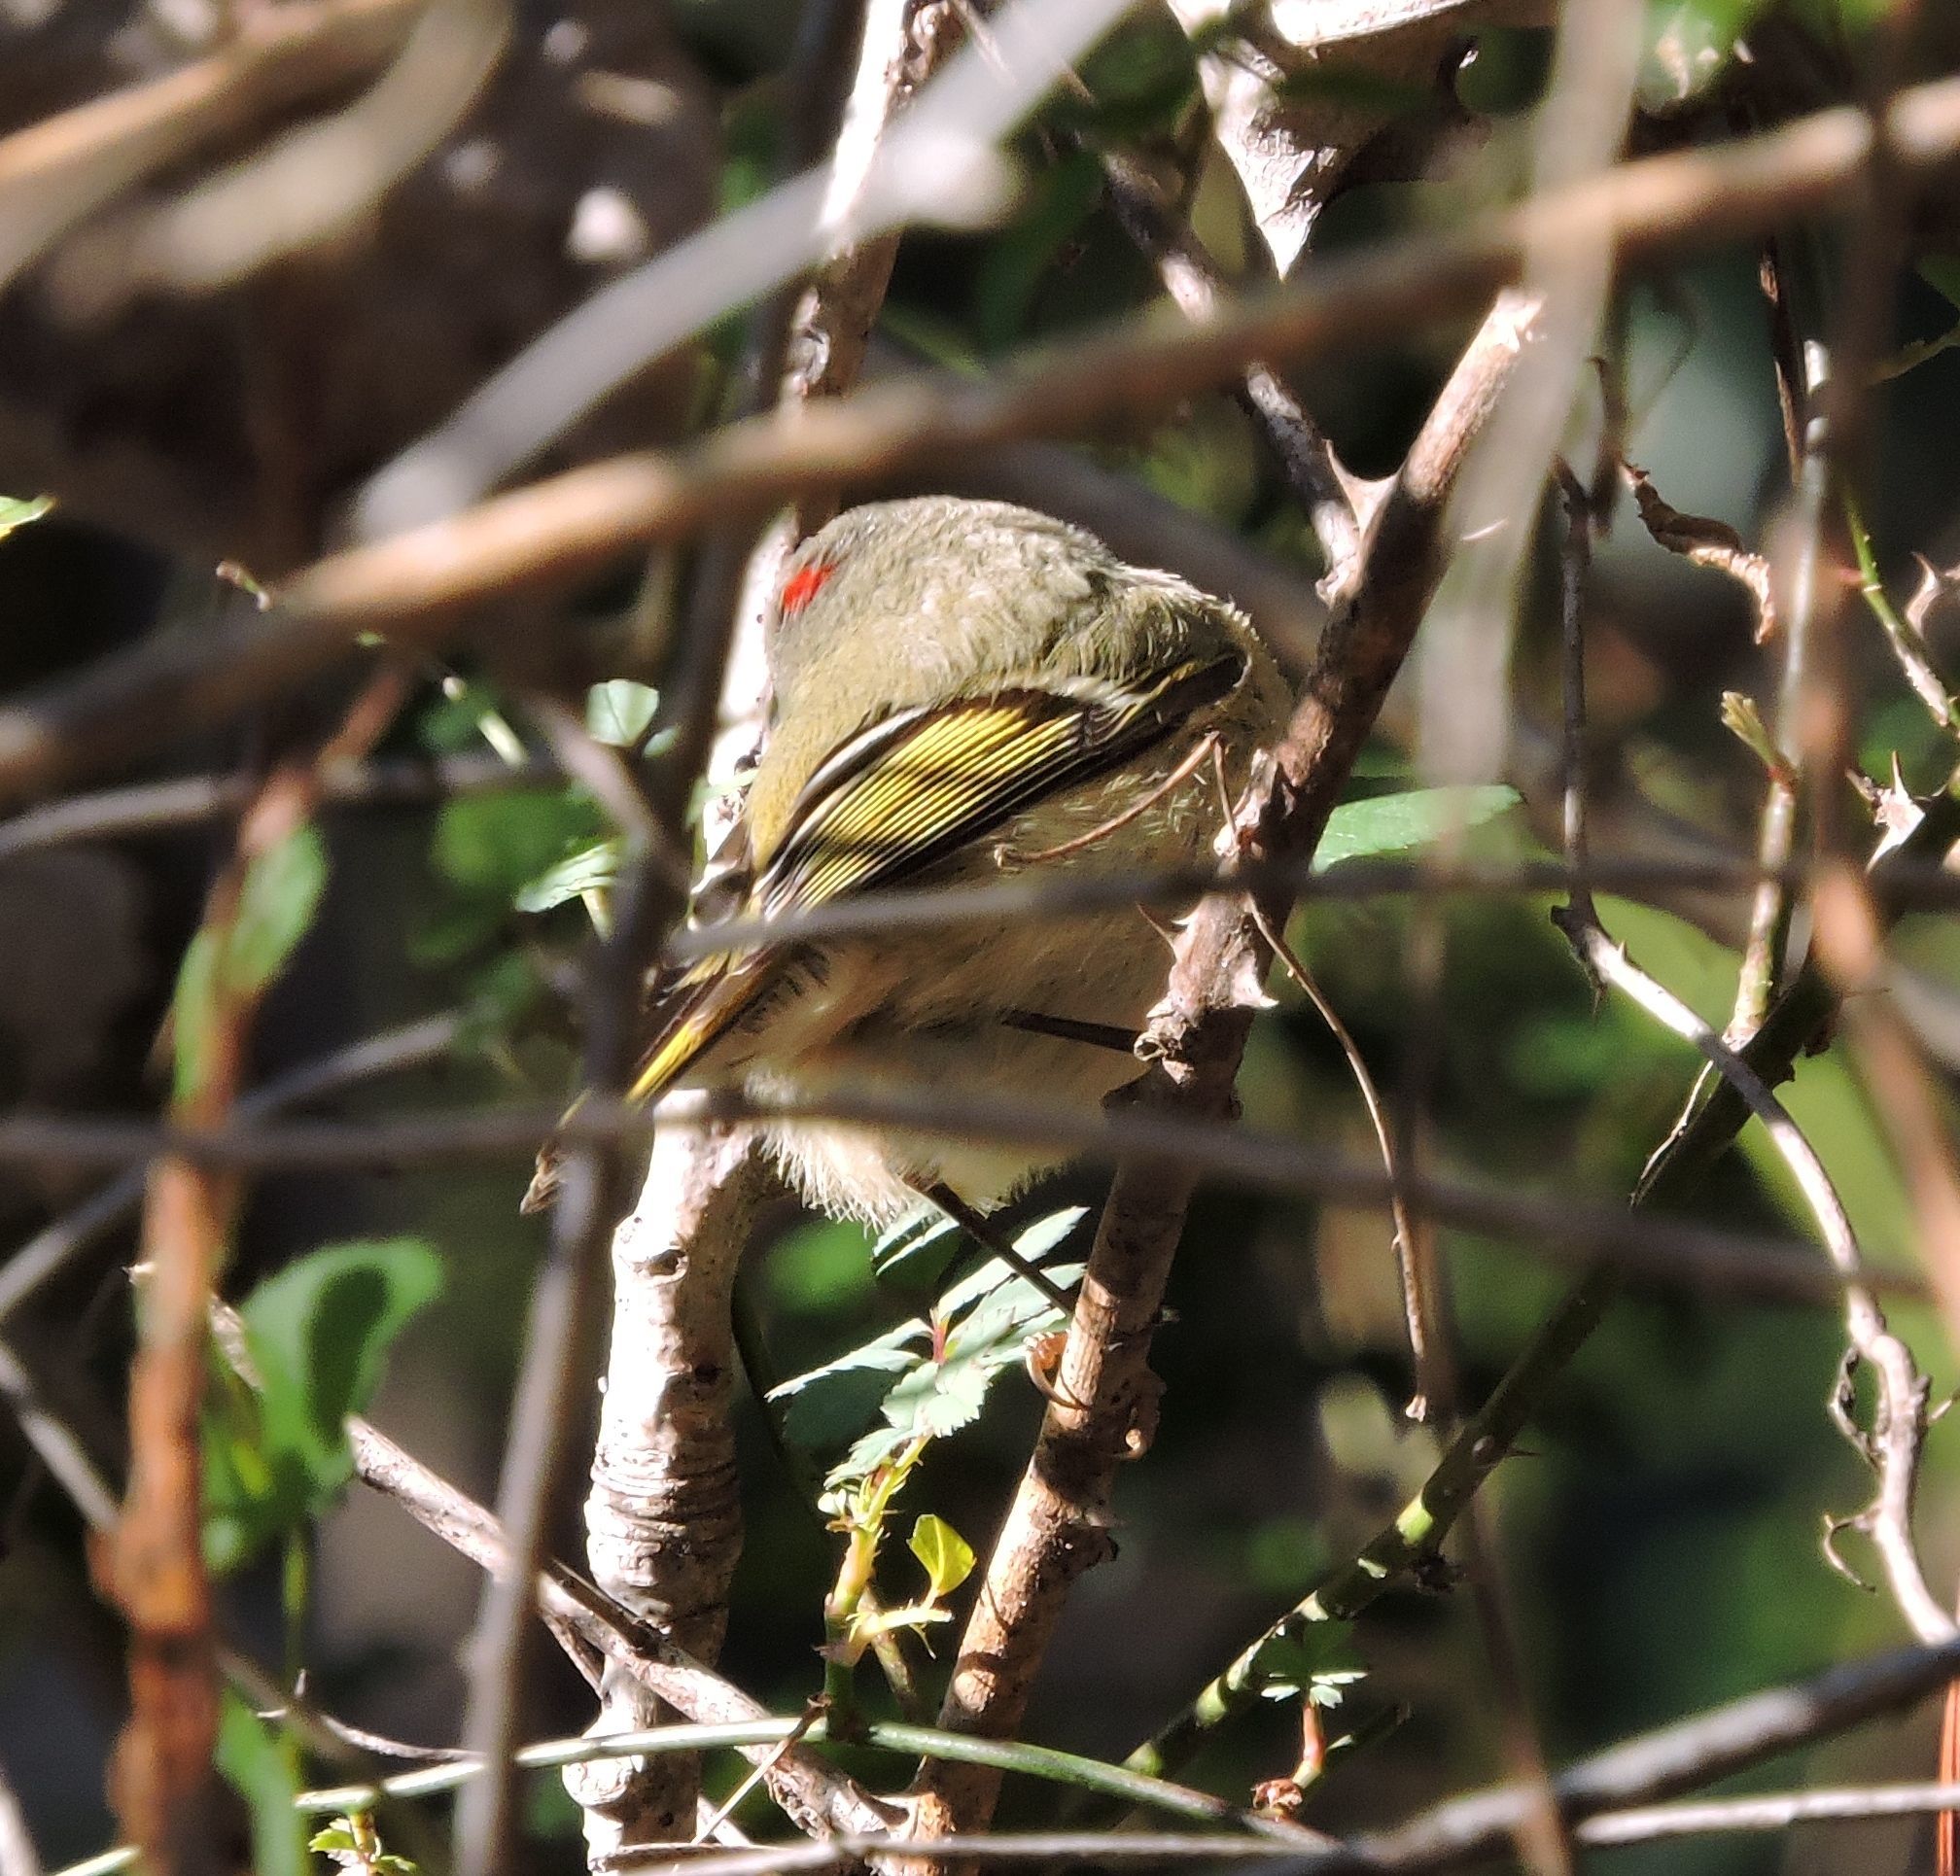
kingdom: Animalia
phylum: Chordata
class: Aves
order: Passeriformes
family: Regulidae
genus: Regulus
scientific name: Regulus calendula
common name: Ruby-crowned kinglet
